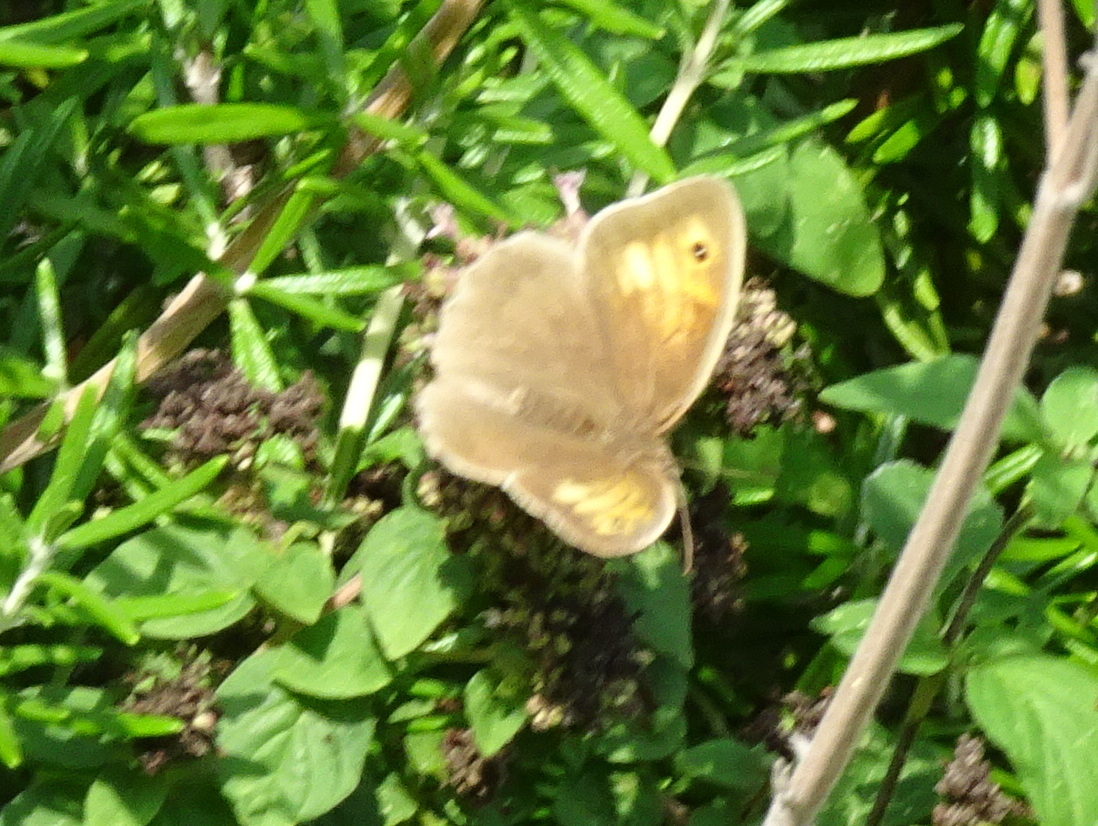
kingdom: Animalia
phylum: Arthropoda
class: Insecta
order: Lepidoptera
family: Nymphalidae
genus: Maniola
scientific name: Maniola jurtina
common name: Meadow brown
